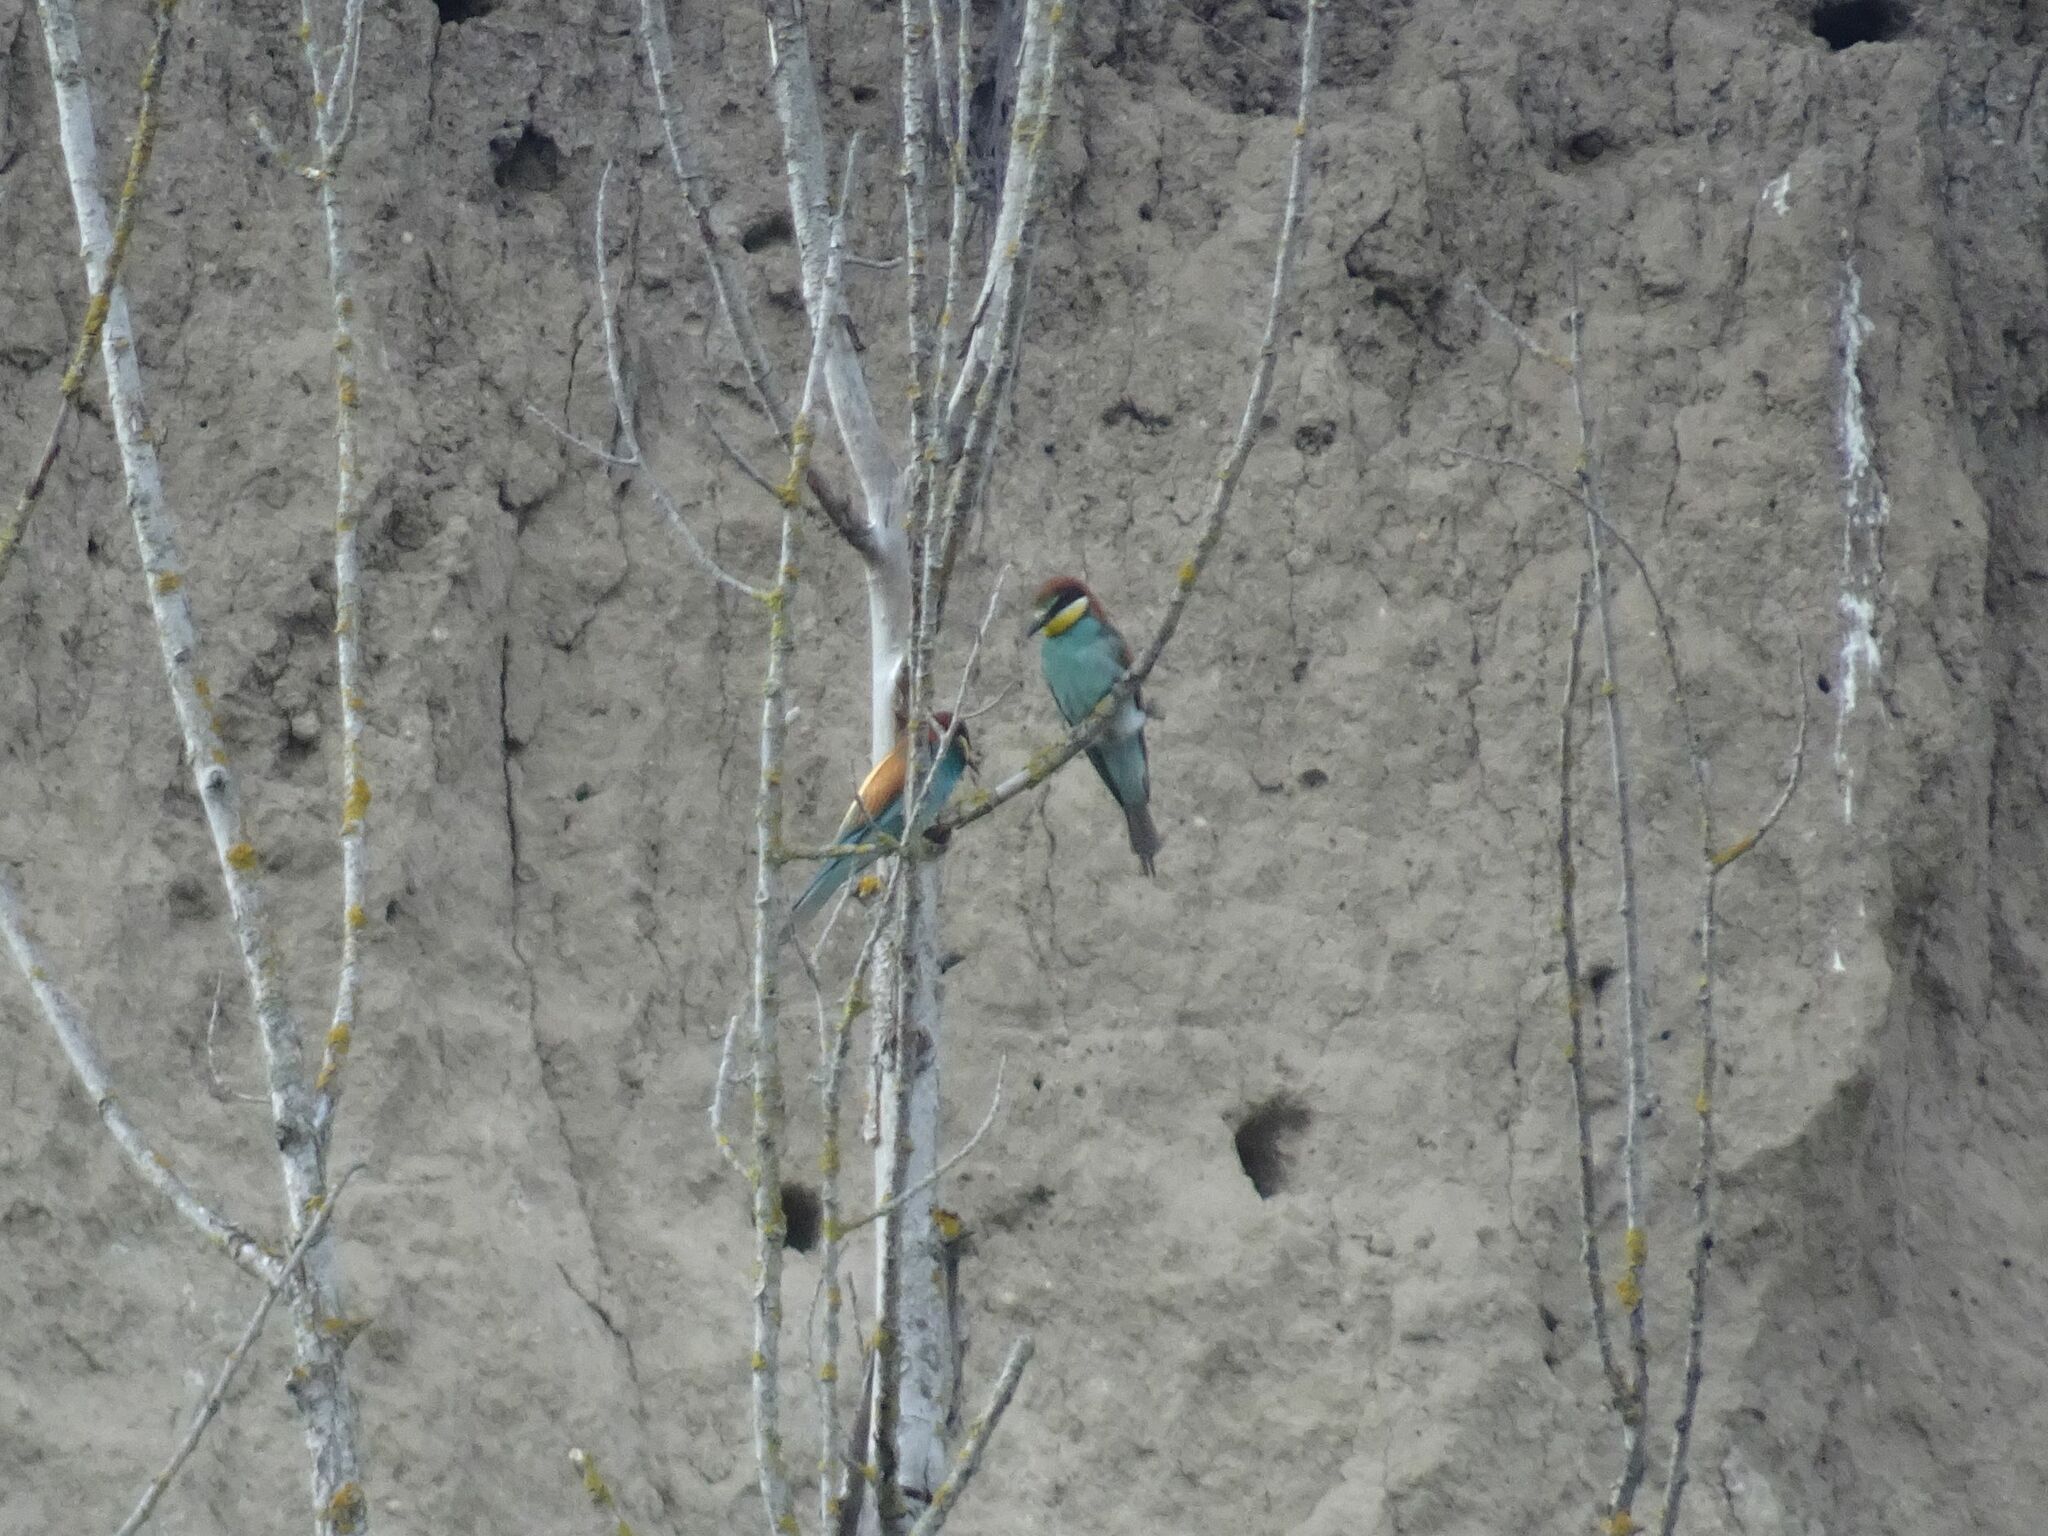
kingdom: Animalia
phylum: Chordata
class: Aves
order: Coraciiformes
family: Meropidae
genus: Merops
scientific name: Merops apiaster
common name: European bee-eater
